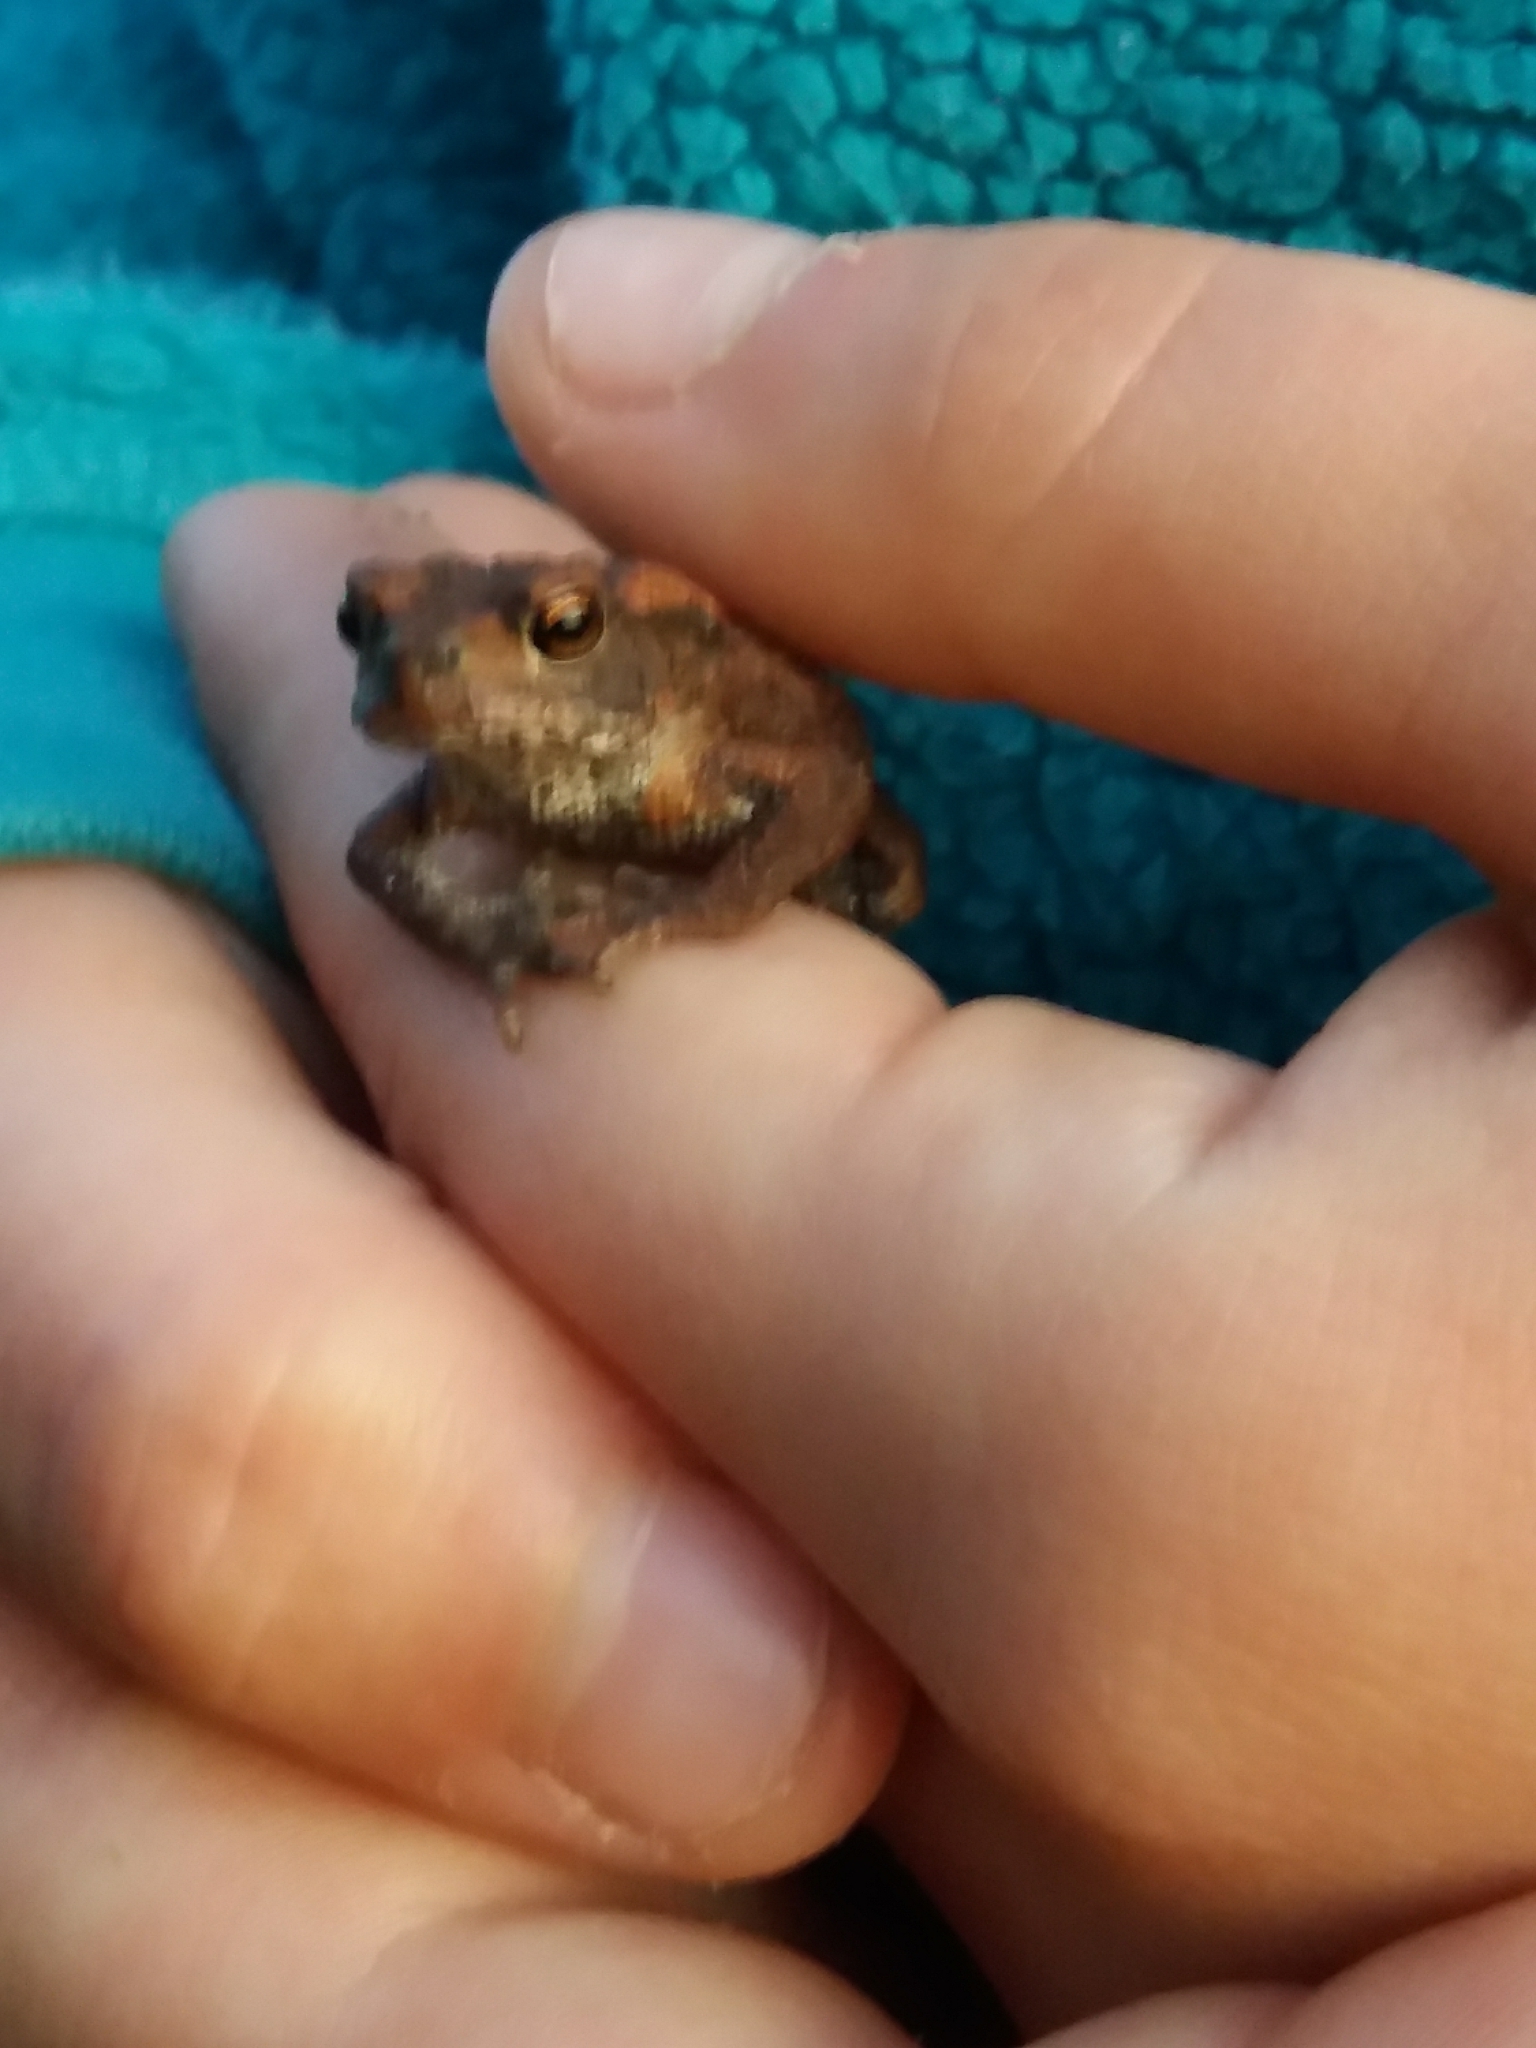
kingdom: Animalia
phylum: Chordata
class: Amphibia
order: Anura
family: Bufonidae
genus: Bufo
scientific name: Bufo bufo
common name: Common toad
